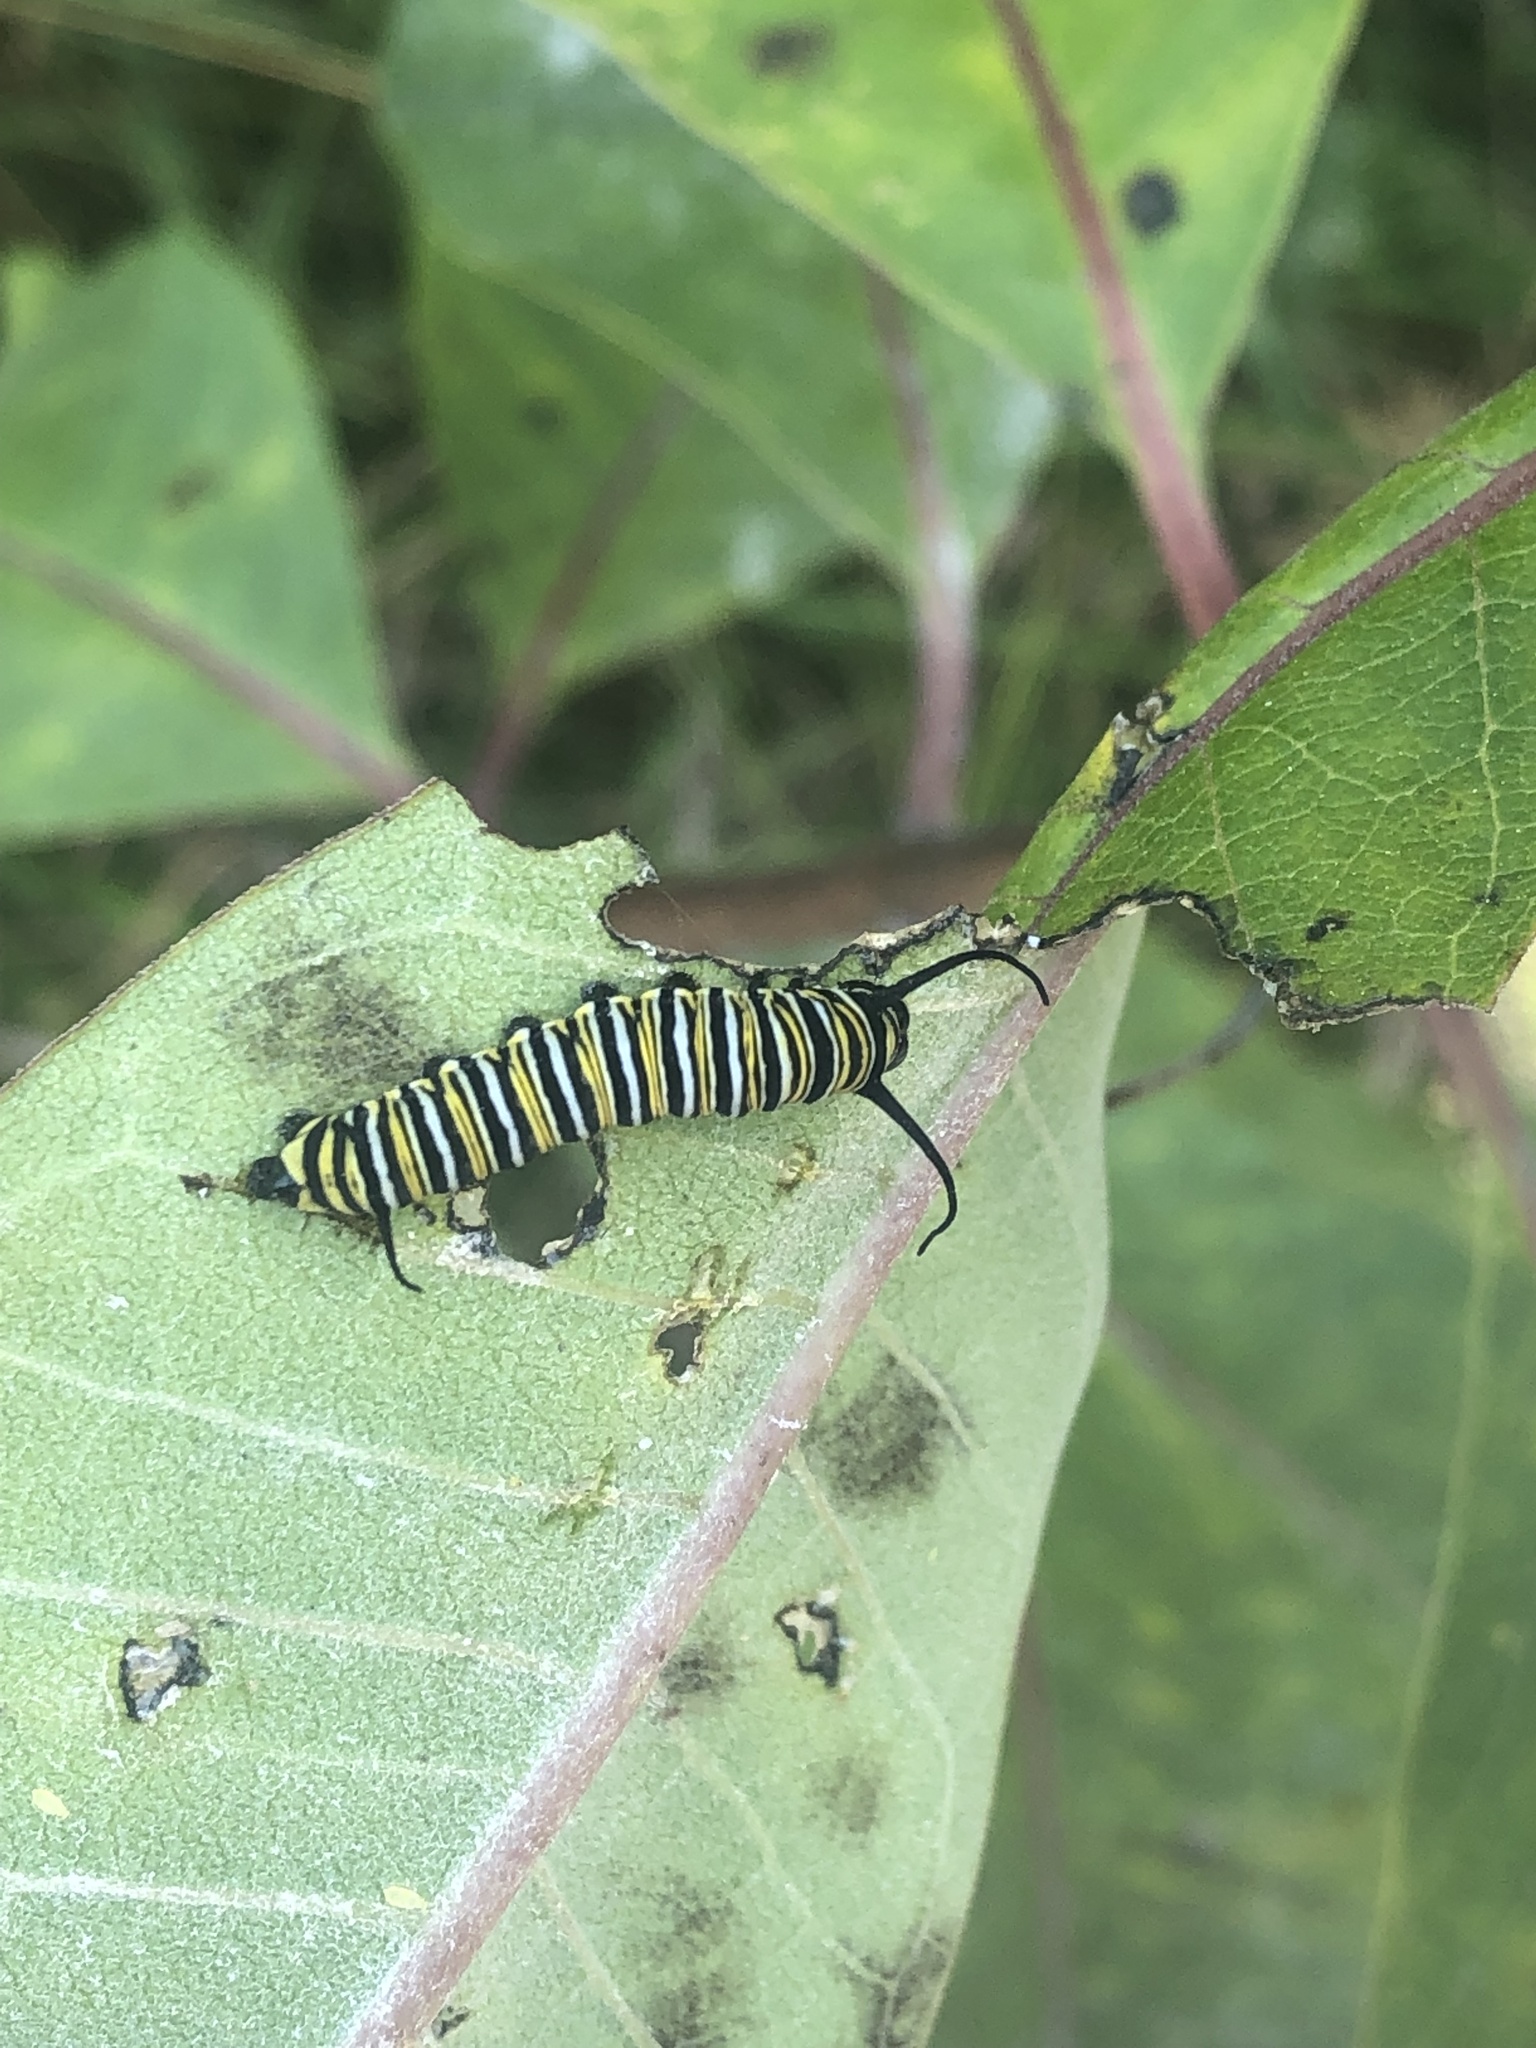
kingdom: Animalia
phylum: Arthropoda
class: Insecta
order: Lepidoptera
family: Nymphalidae
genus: Danaus
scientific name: Danaus plexippus
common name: Monarch
